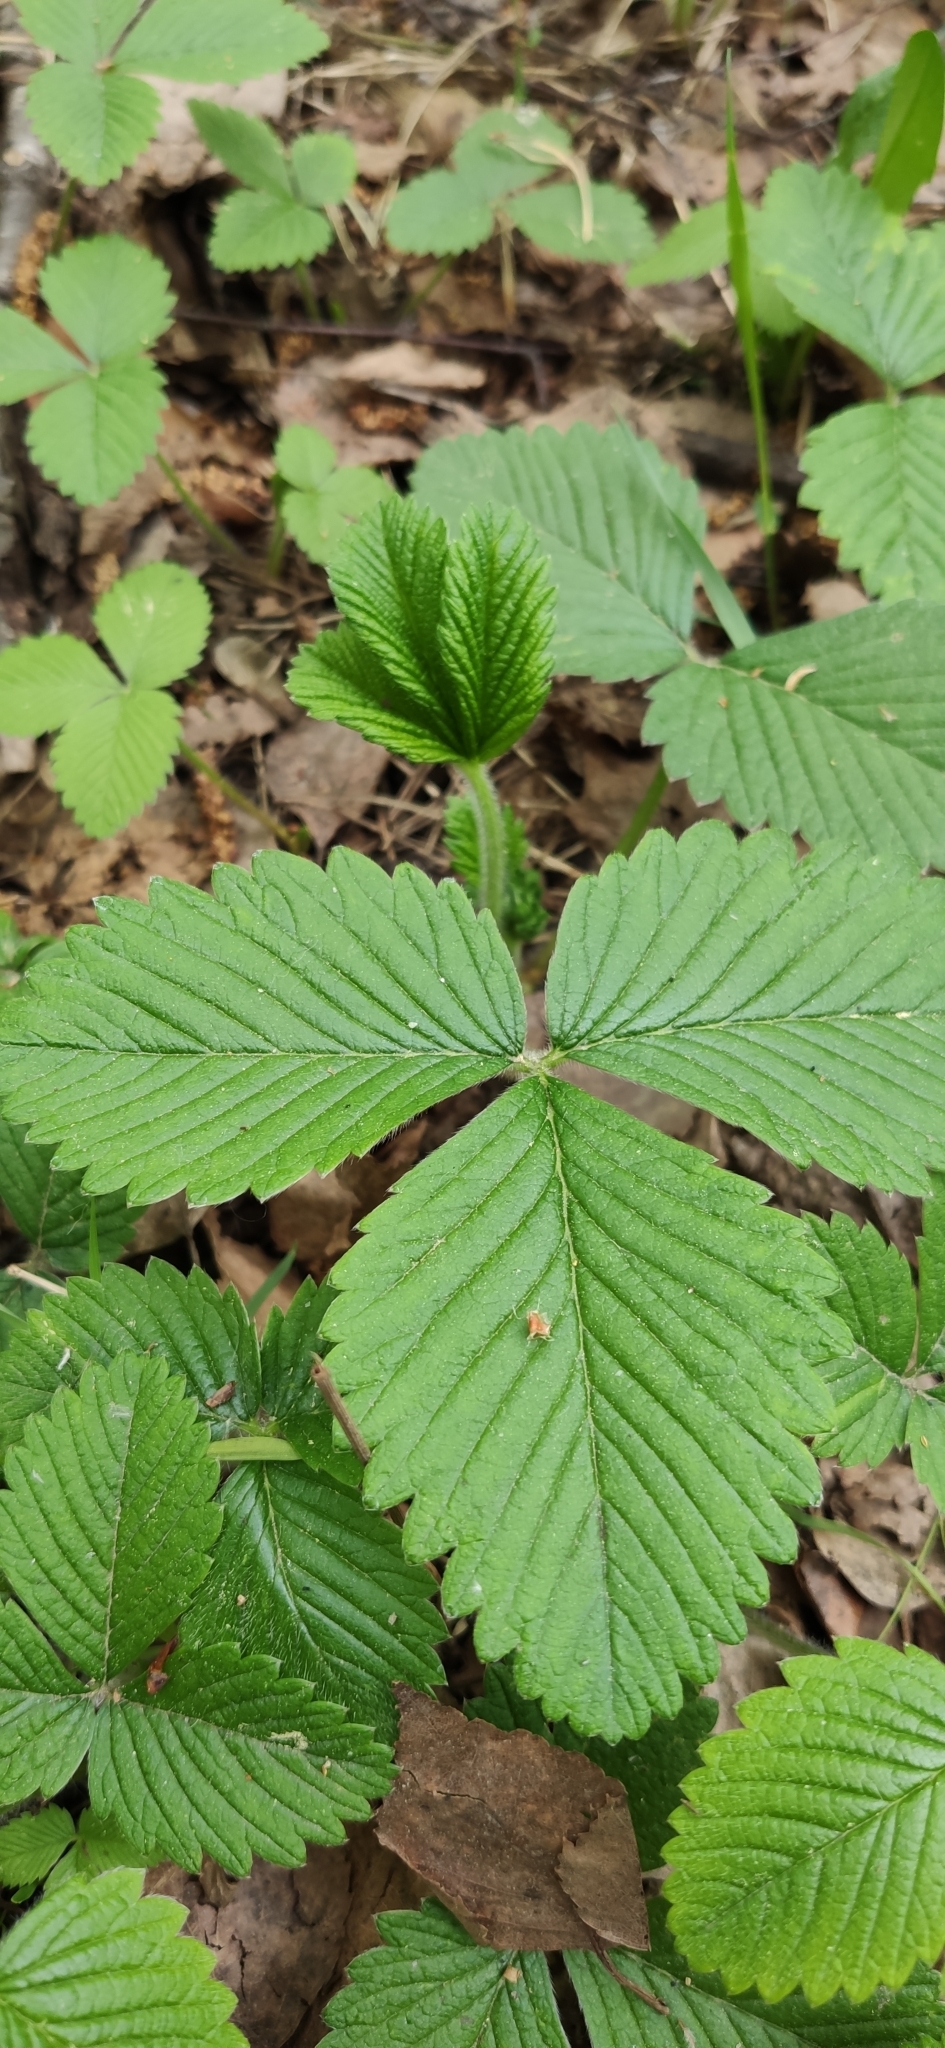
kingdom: Plantae
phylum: Tracheophyta
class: Magnoliopsida
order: Rosales
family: Rosaceae
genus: Fragaria
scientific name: Fragaria moschata
